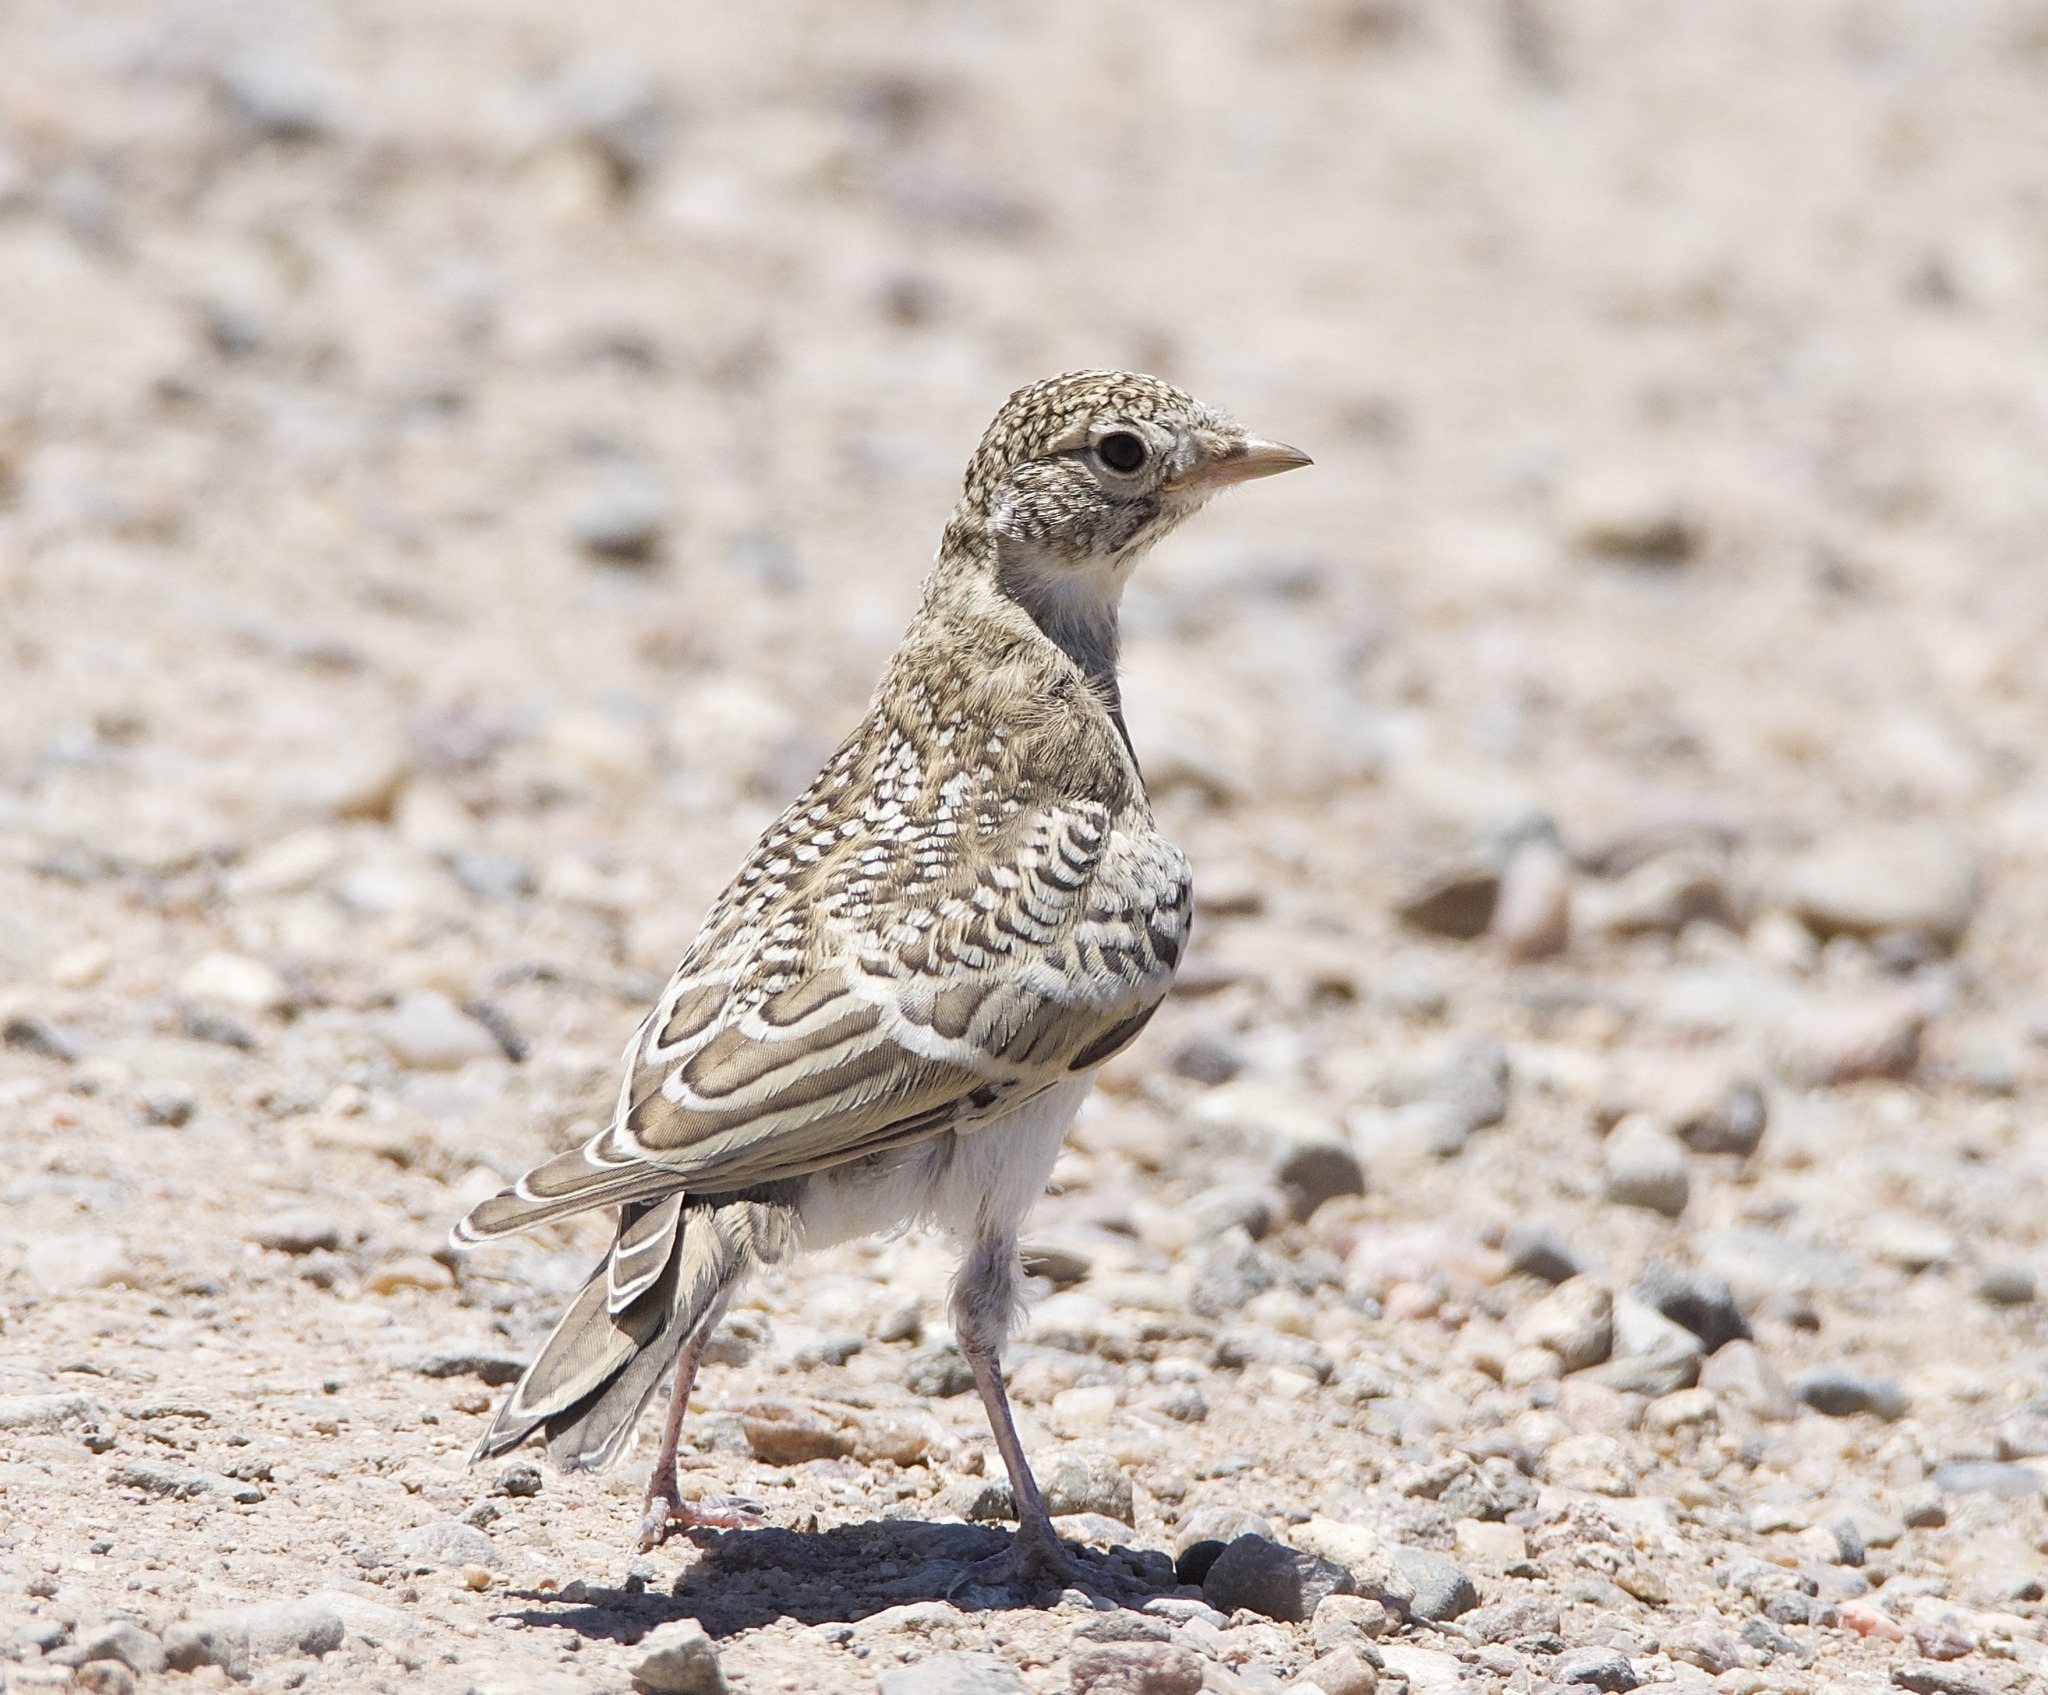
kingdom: Animalia
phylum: Chordata
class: Aves
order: Passeriformes
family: Alaudidae
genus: Eremophila
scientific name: Eremophila alpestris
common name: Horned lark
